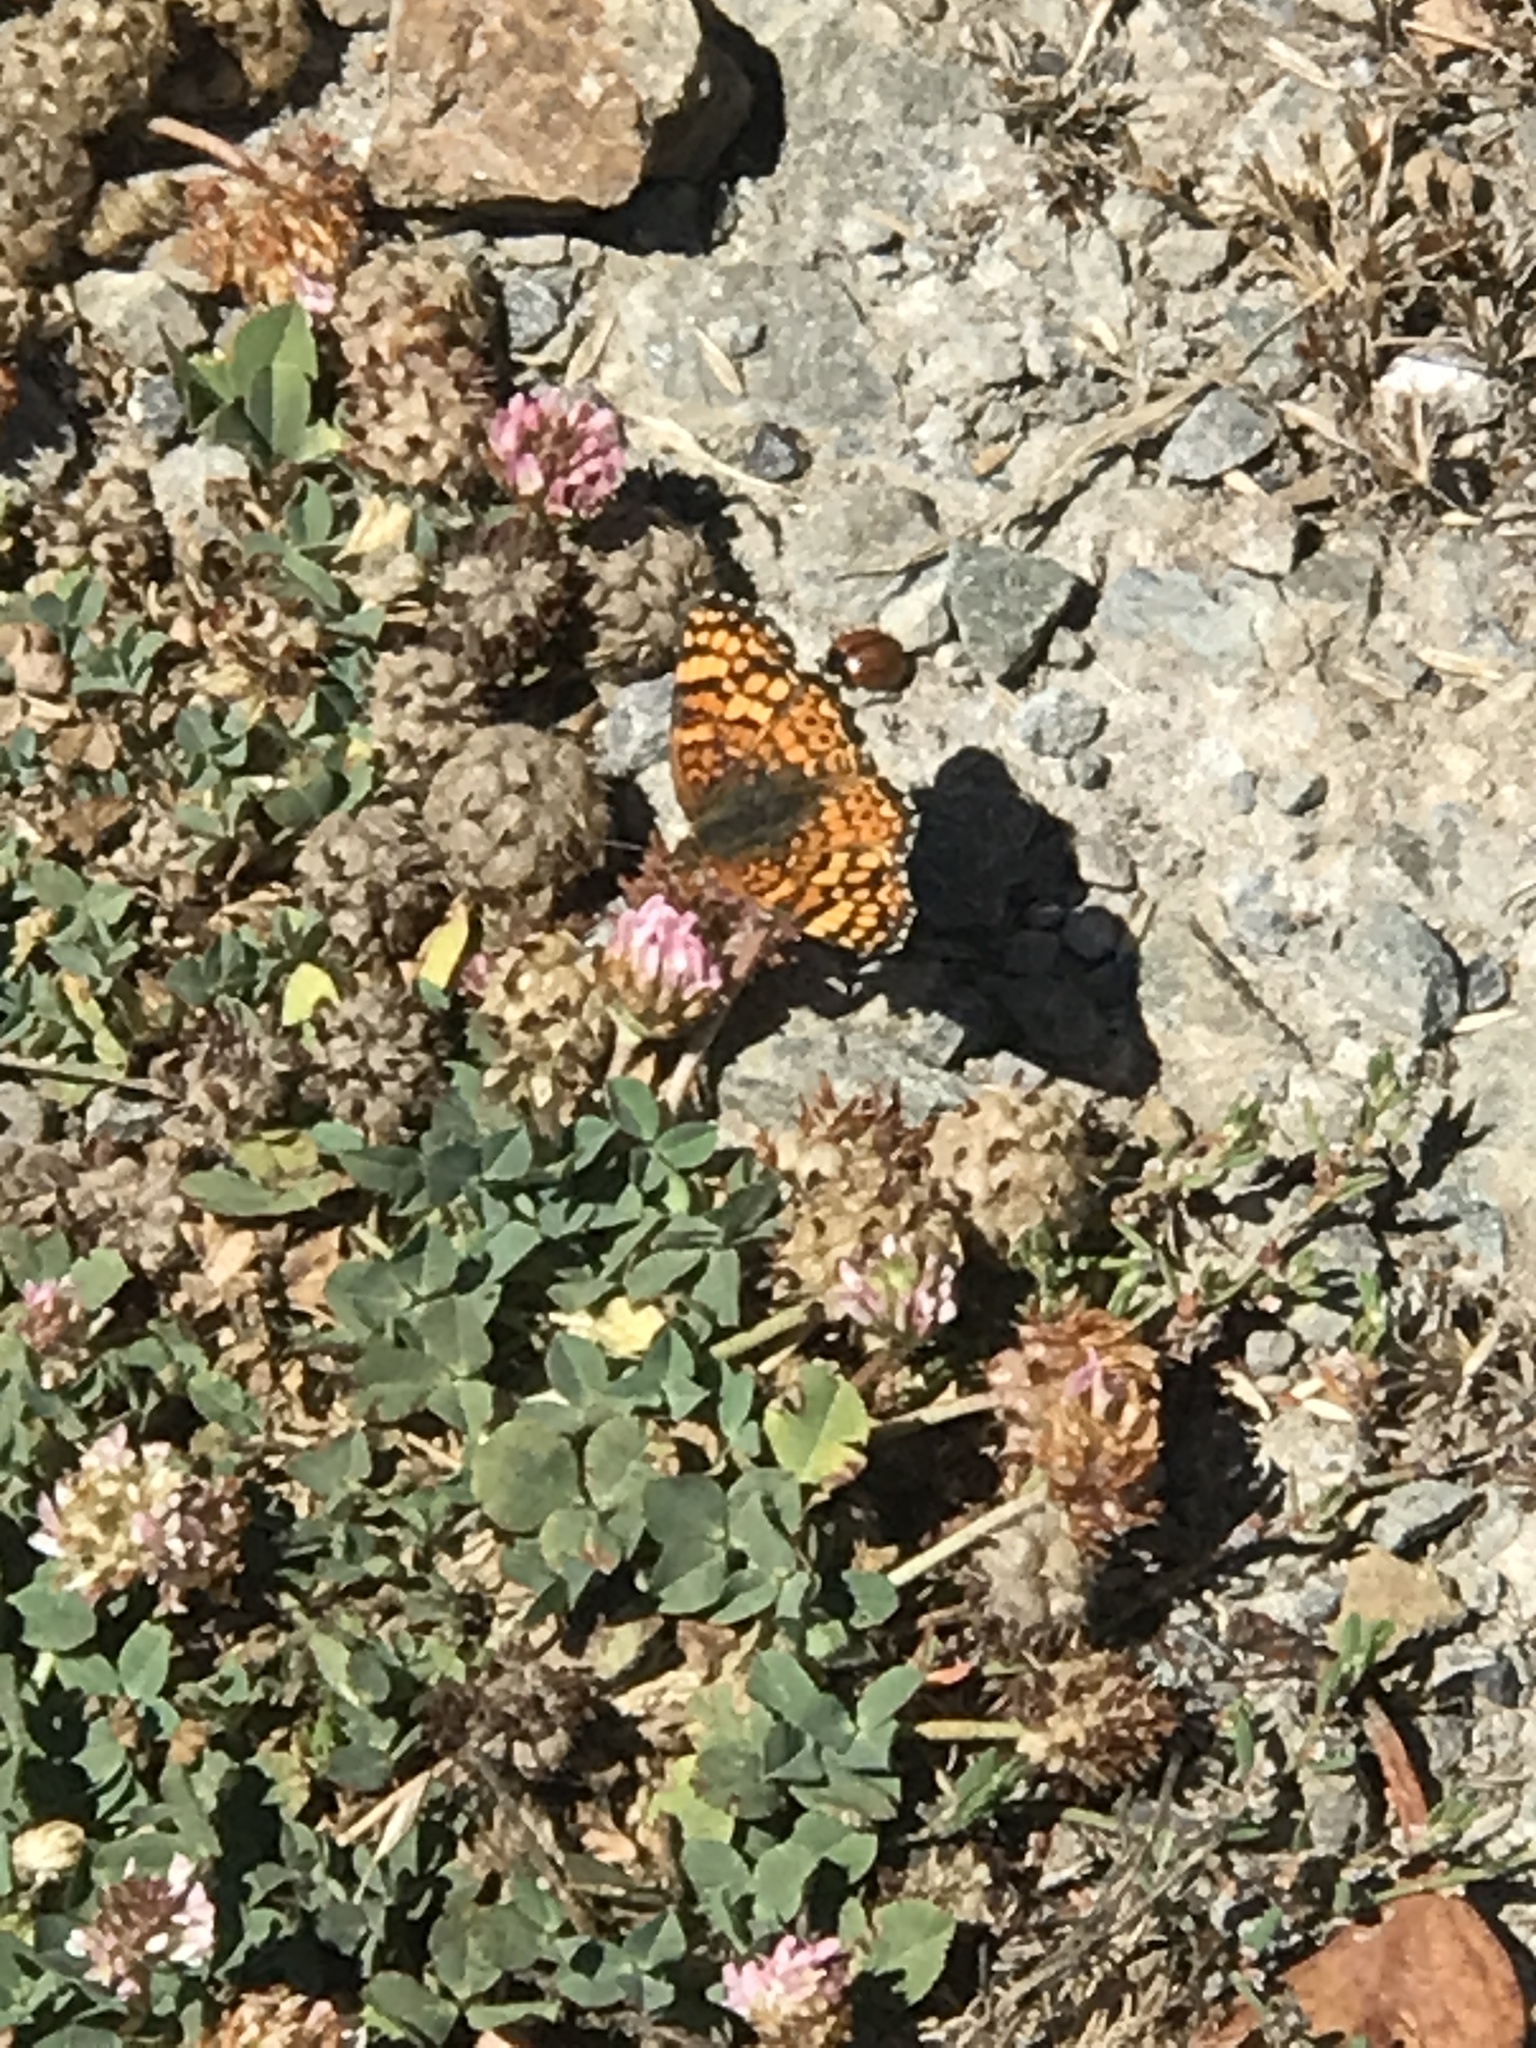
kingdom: Animalia
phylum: Arthropoda
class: Insecta
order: Lepidoptera
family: Nymphalidae
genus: Eresia
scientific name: Eresia aveyrona
